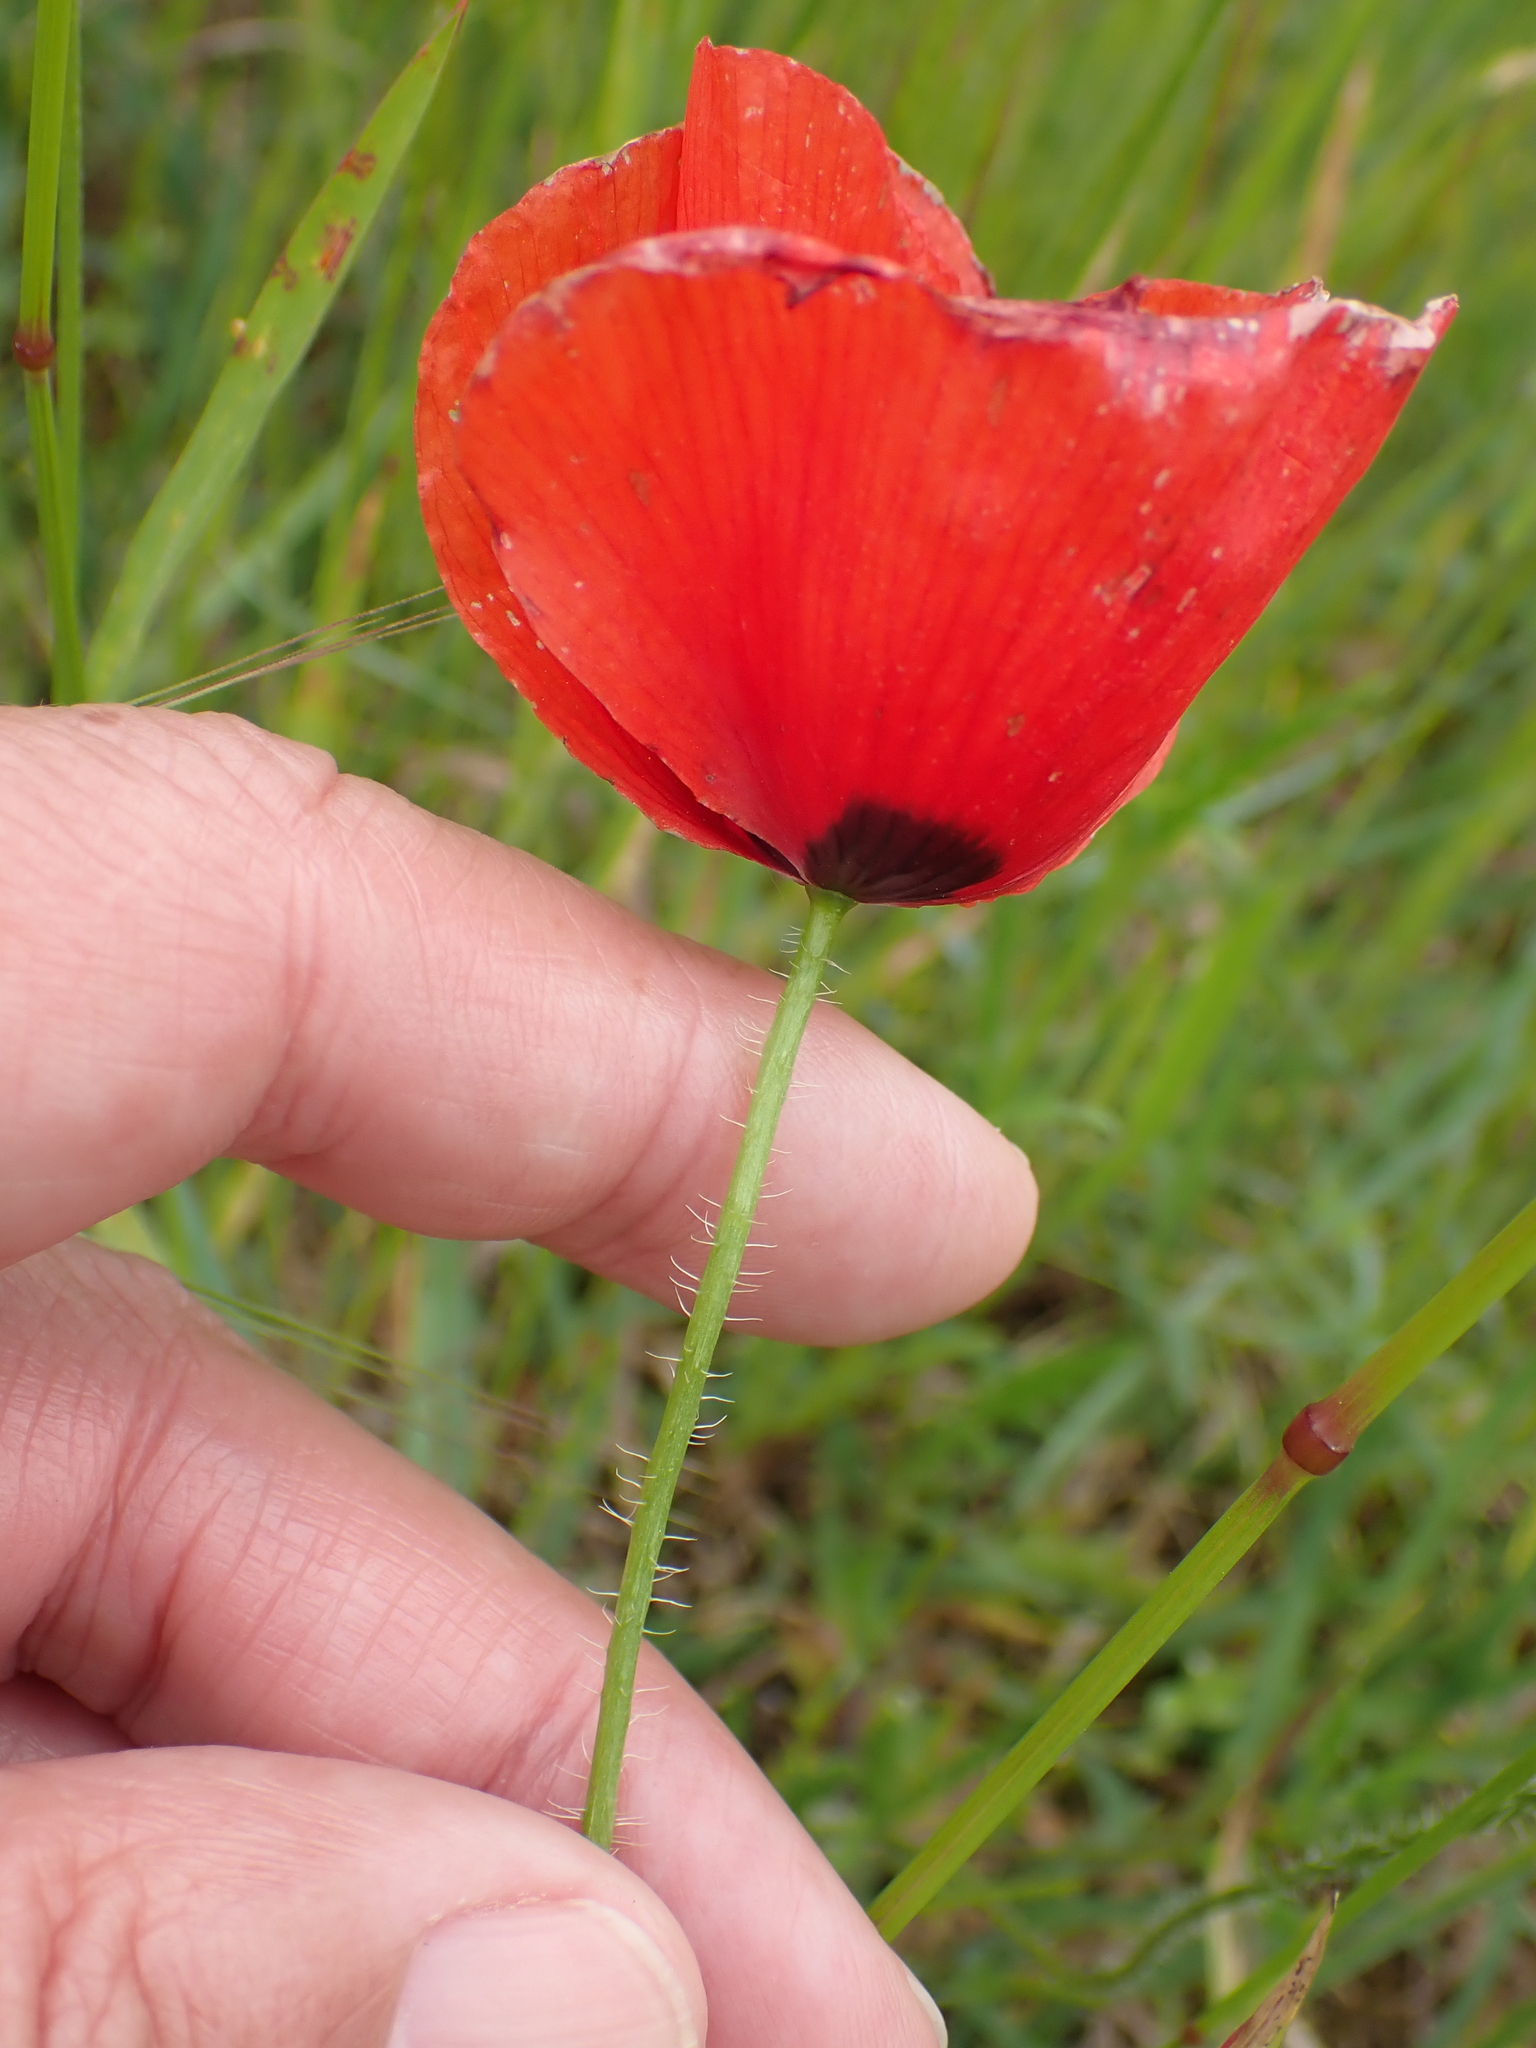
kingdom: Plantae
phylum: Tracheophyta
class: Magnoliopsida
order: Ranunculales
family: Papaveraceae
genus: Papaver
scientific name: Papaver rhoeas
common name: Corn poppy
